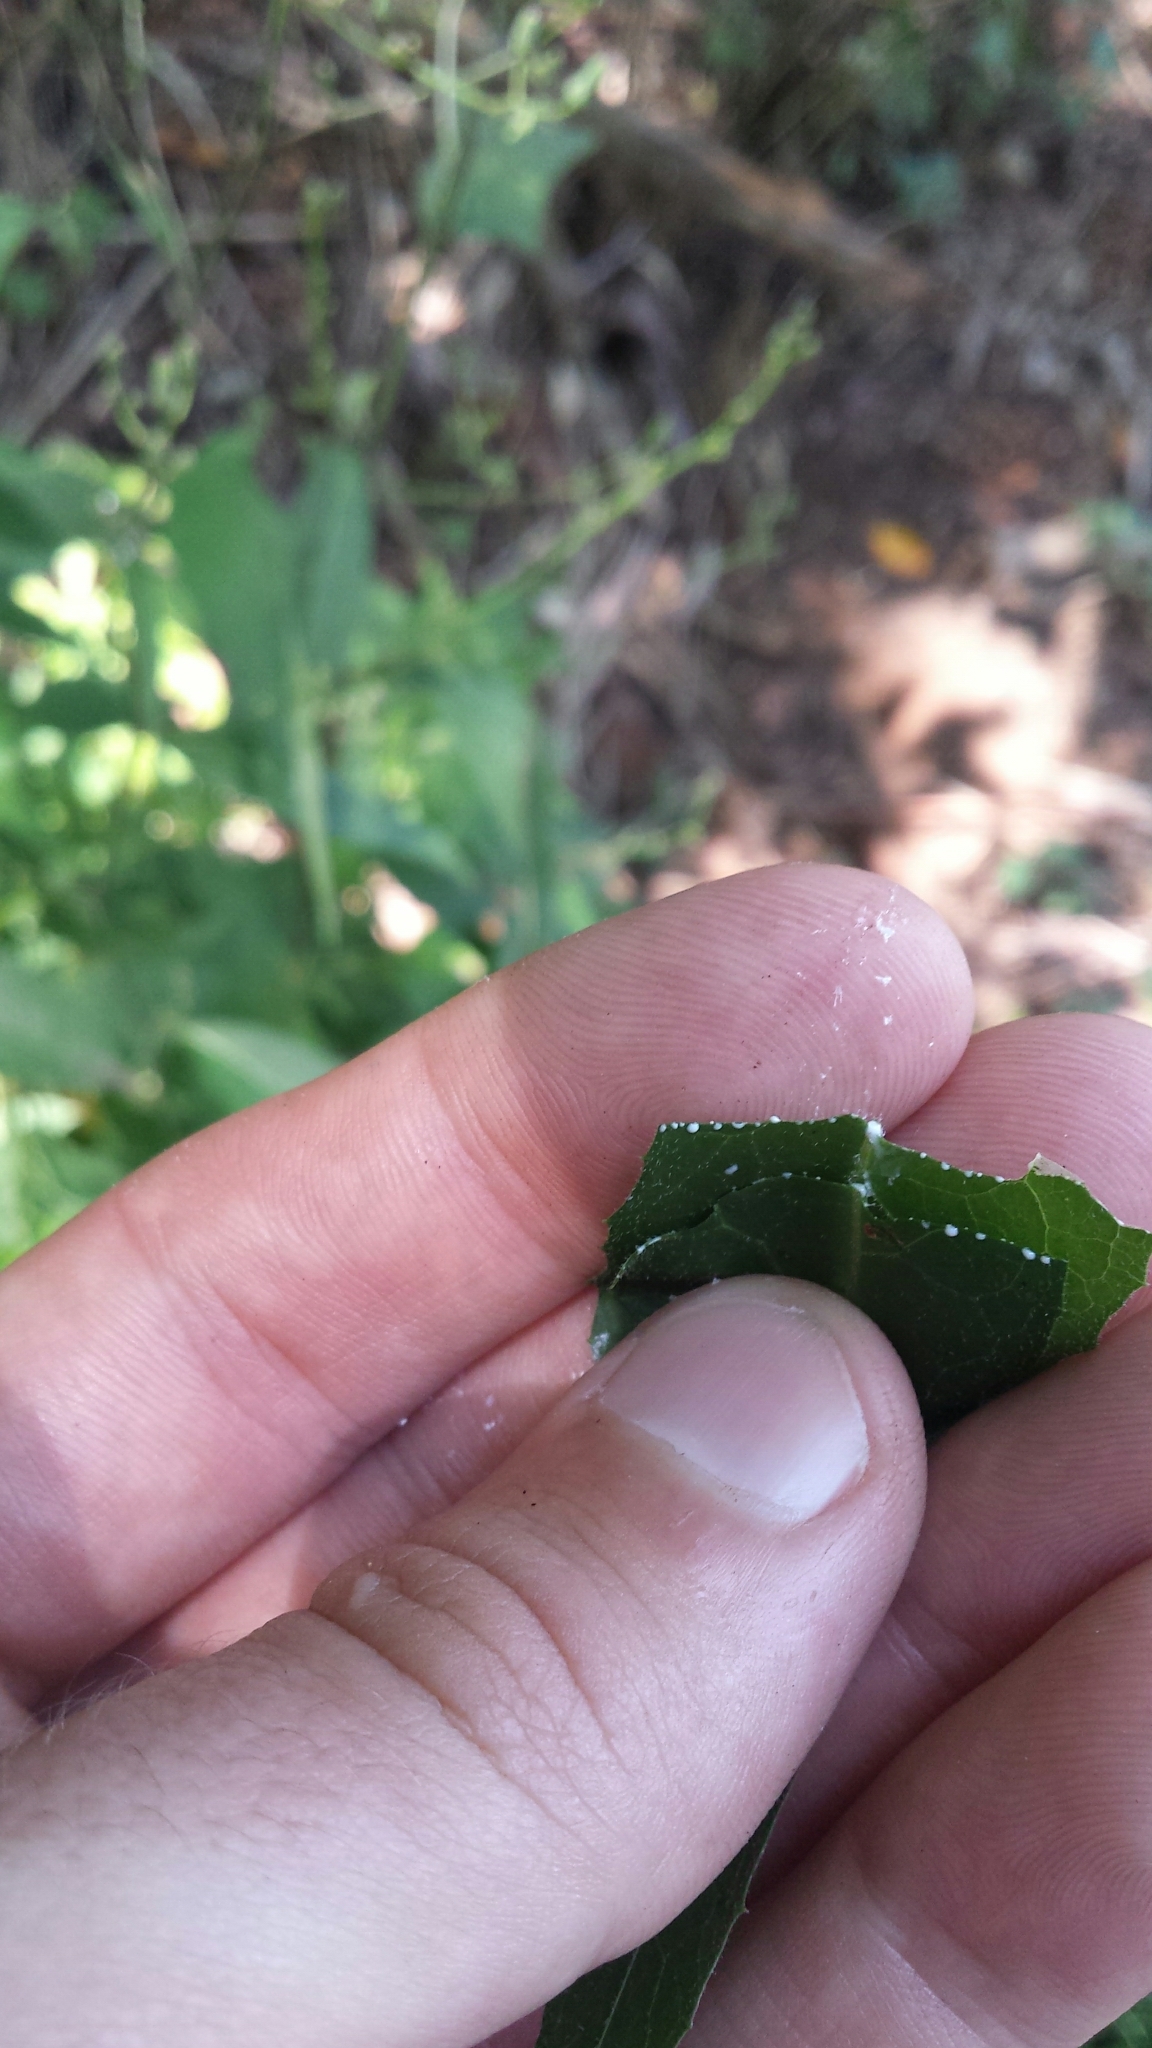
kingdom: Plantae
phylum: Tracheophyta
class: Magnoliopsida
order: Asterales
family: Asteraceae
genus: Lactuca
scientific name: Lactuca floridana
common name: Woodland lettuce
